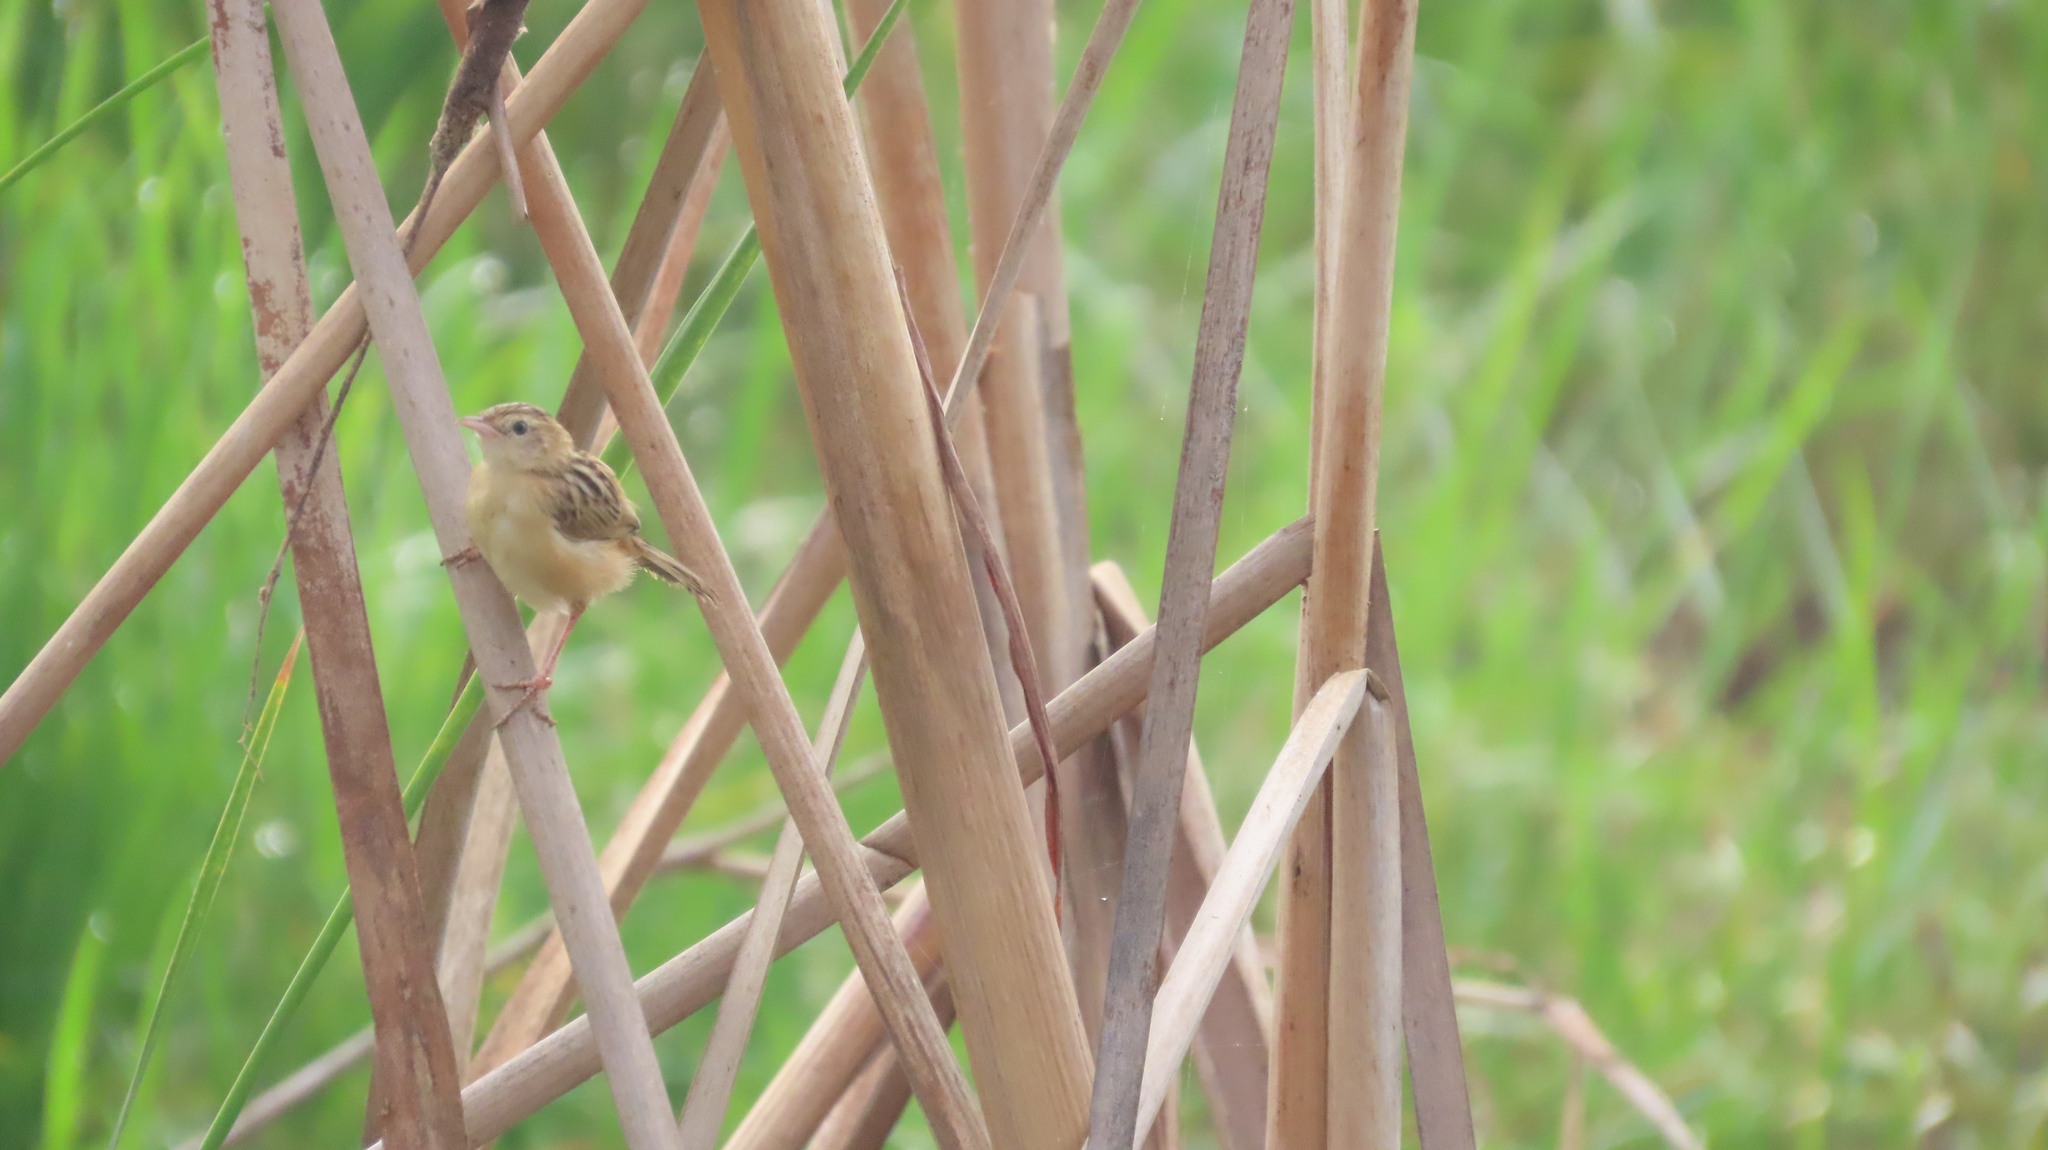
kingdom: Animalia
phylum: Chordata
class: Aves
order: Passeriformes
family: Cisticolidae
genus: Cisticola
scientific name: Cisticola juncidis
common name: Zitting cisticola
